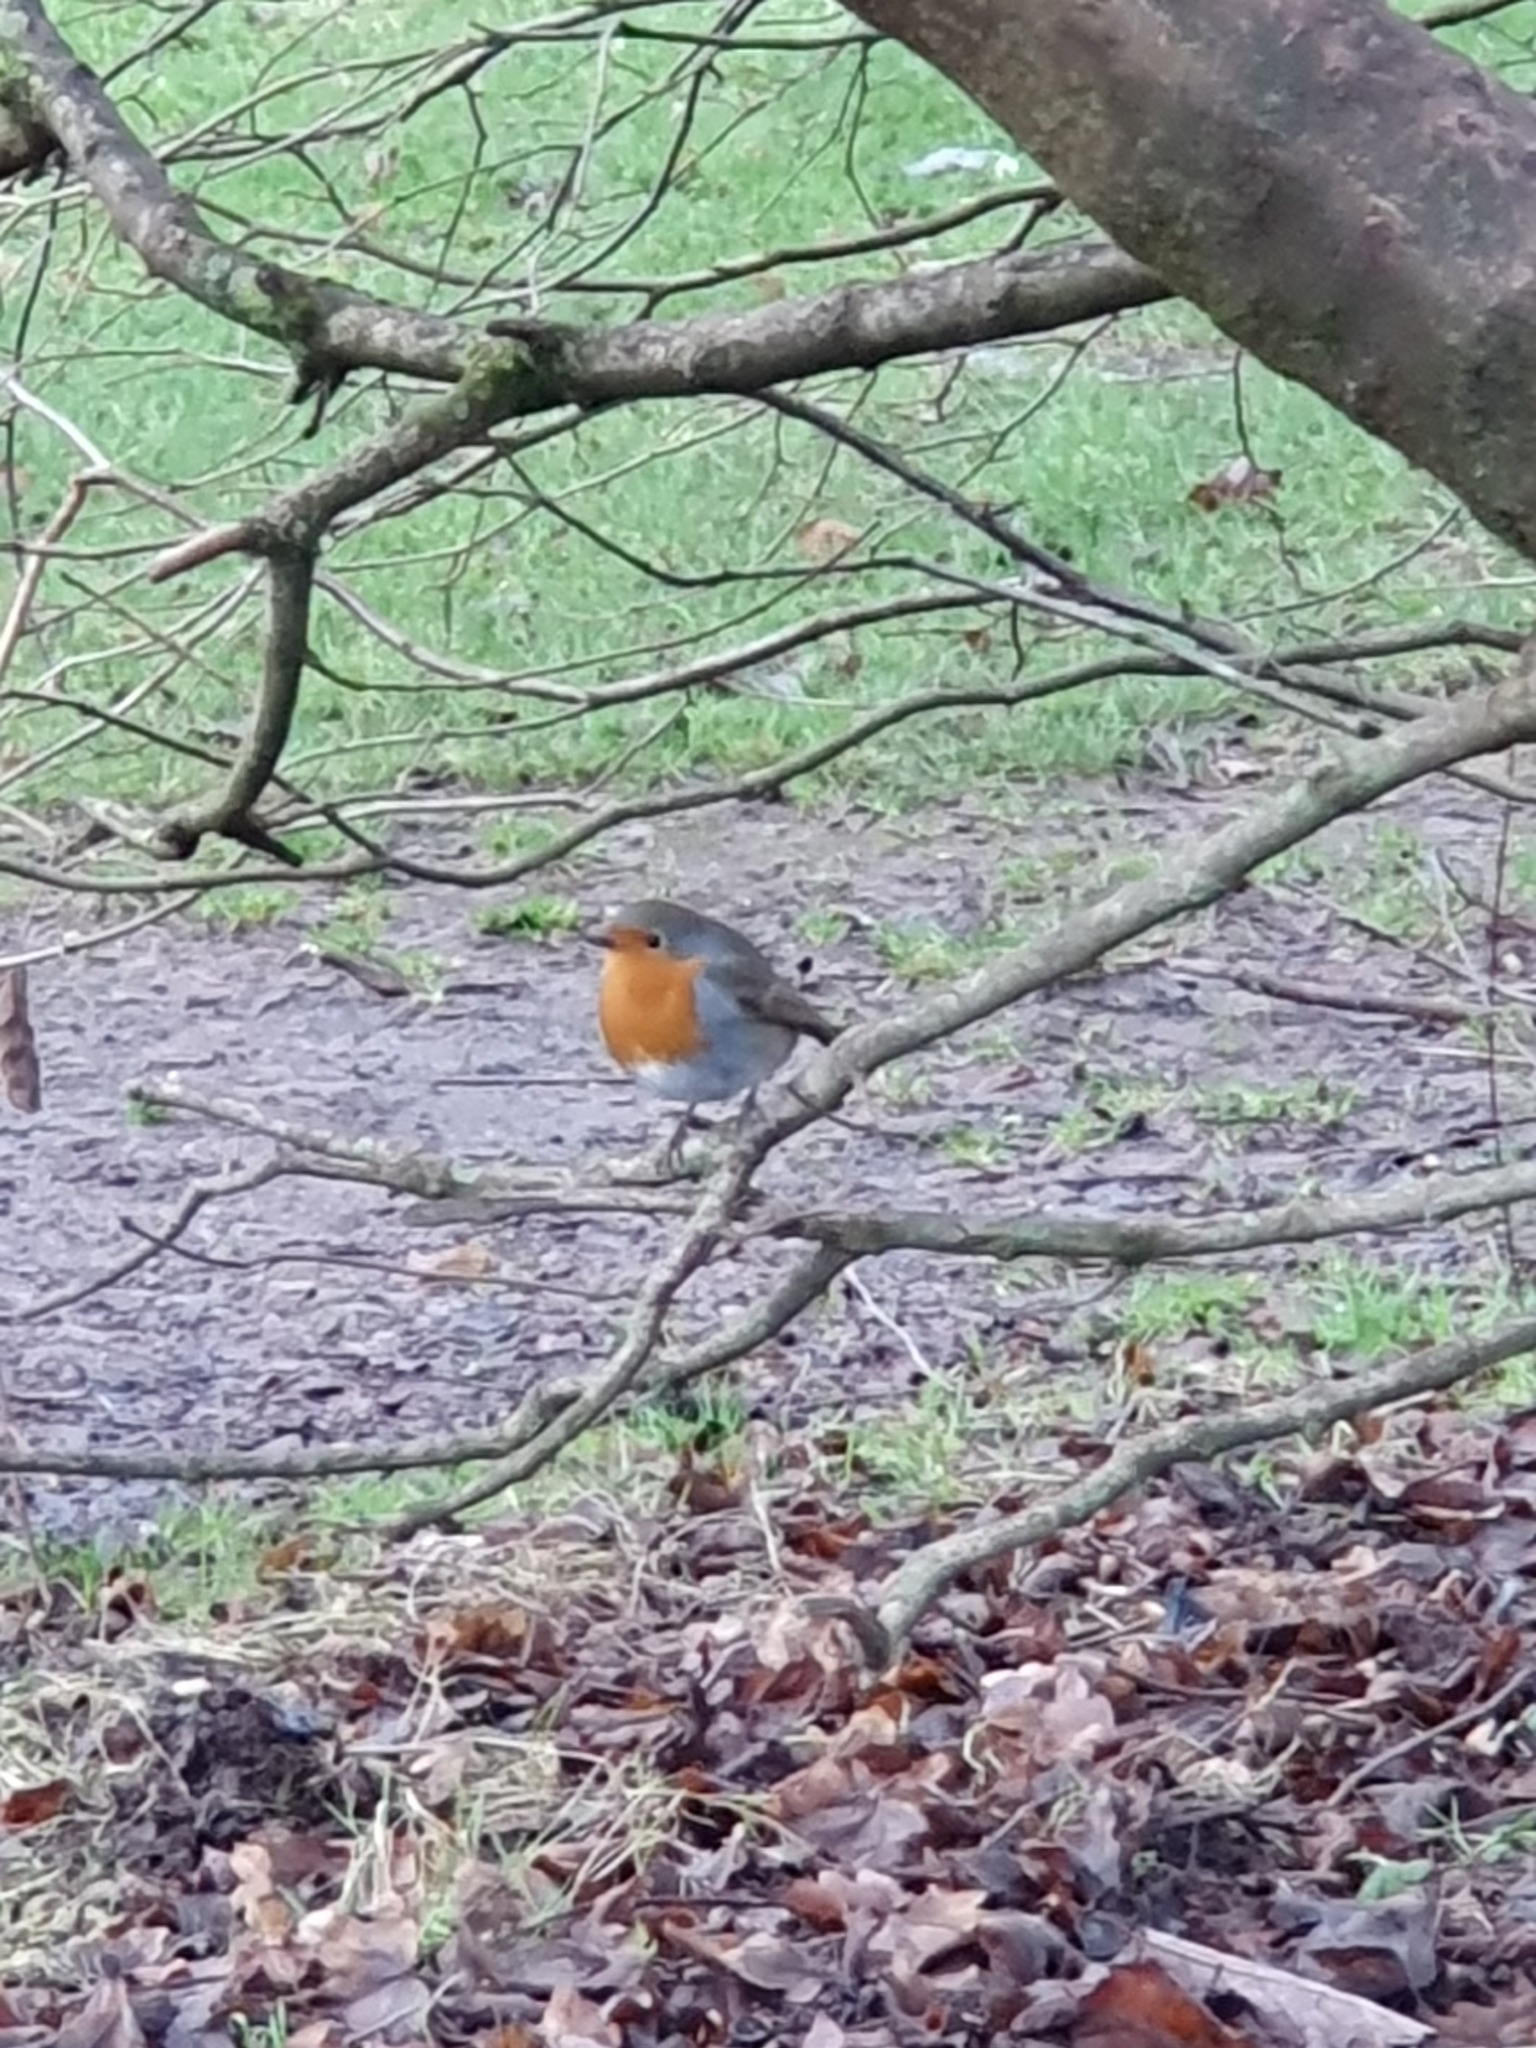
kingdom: Animalia
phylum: Chordata
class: Aves
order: Passeriformes
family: Muscicapidae
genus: Erithacus
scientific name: Erithacus rubecula
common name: European robin
